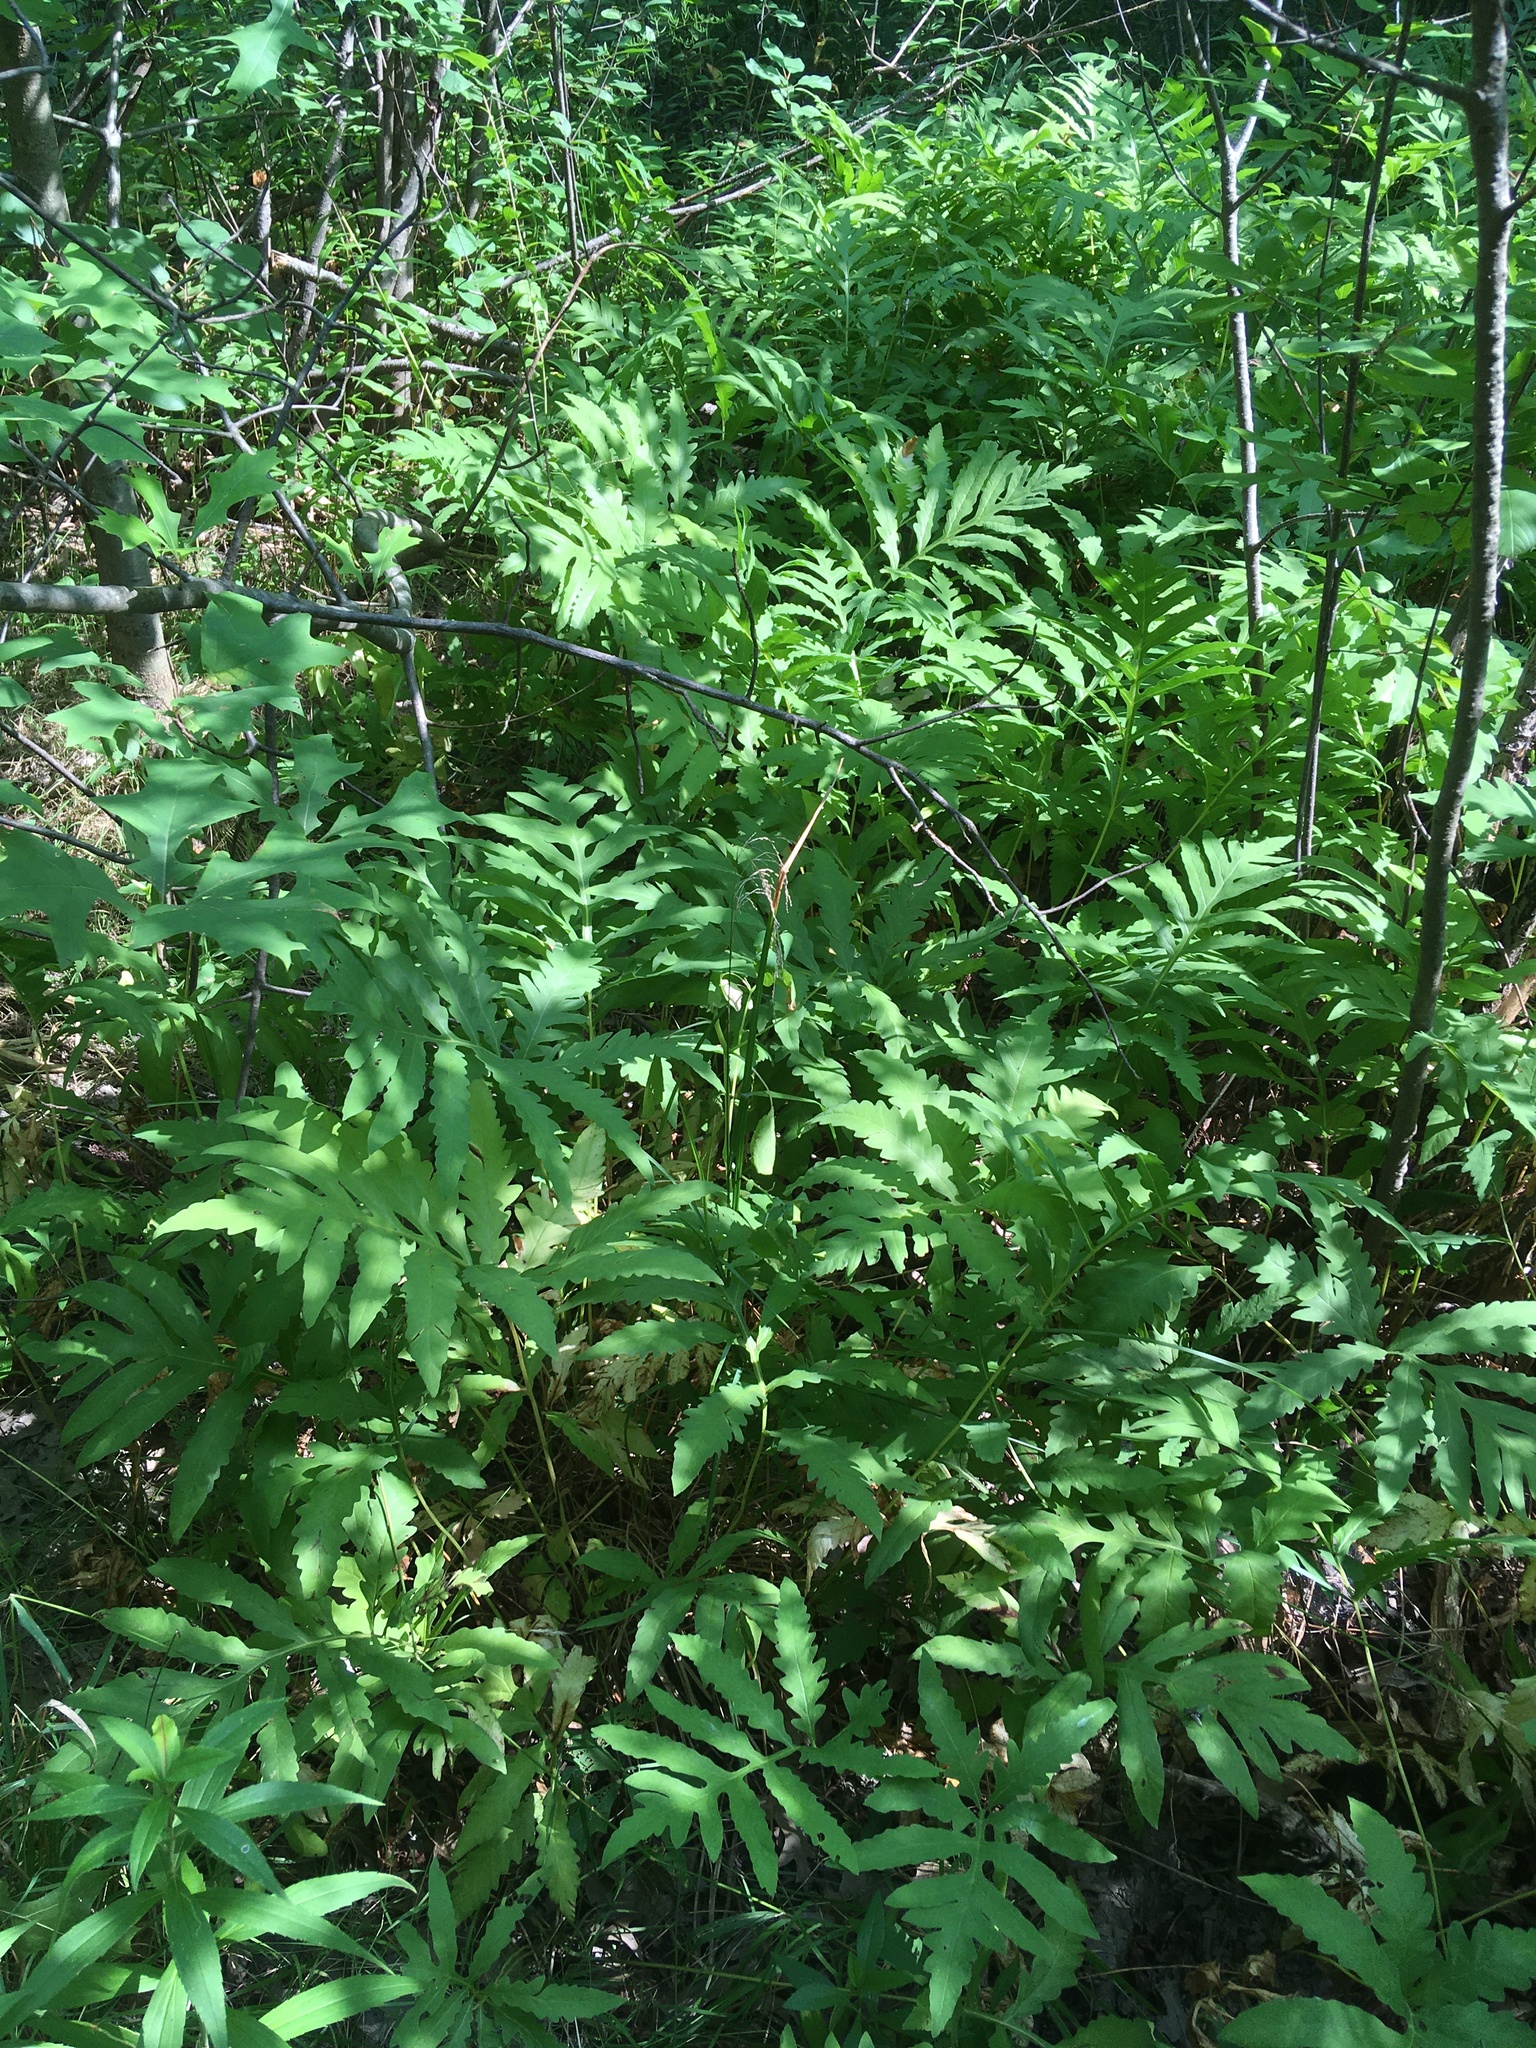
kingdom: Plantae
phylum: Tracheophyta
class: Polypodiopsida
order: Polypodiales
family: Onocleaceae
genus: Onoclea
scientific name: Onoclea sensibilis
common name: Sensitive fern
